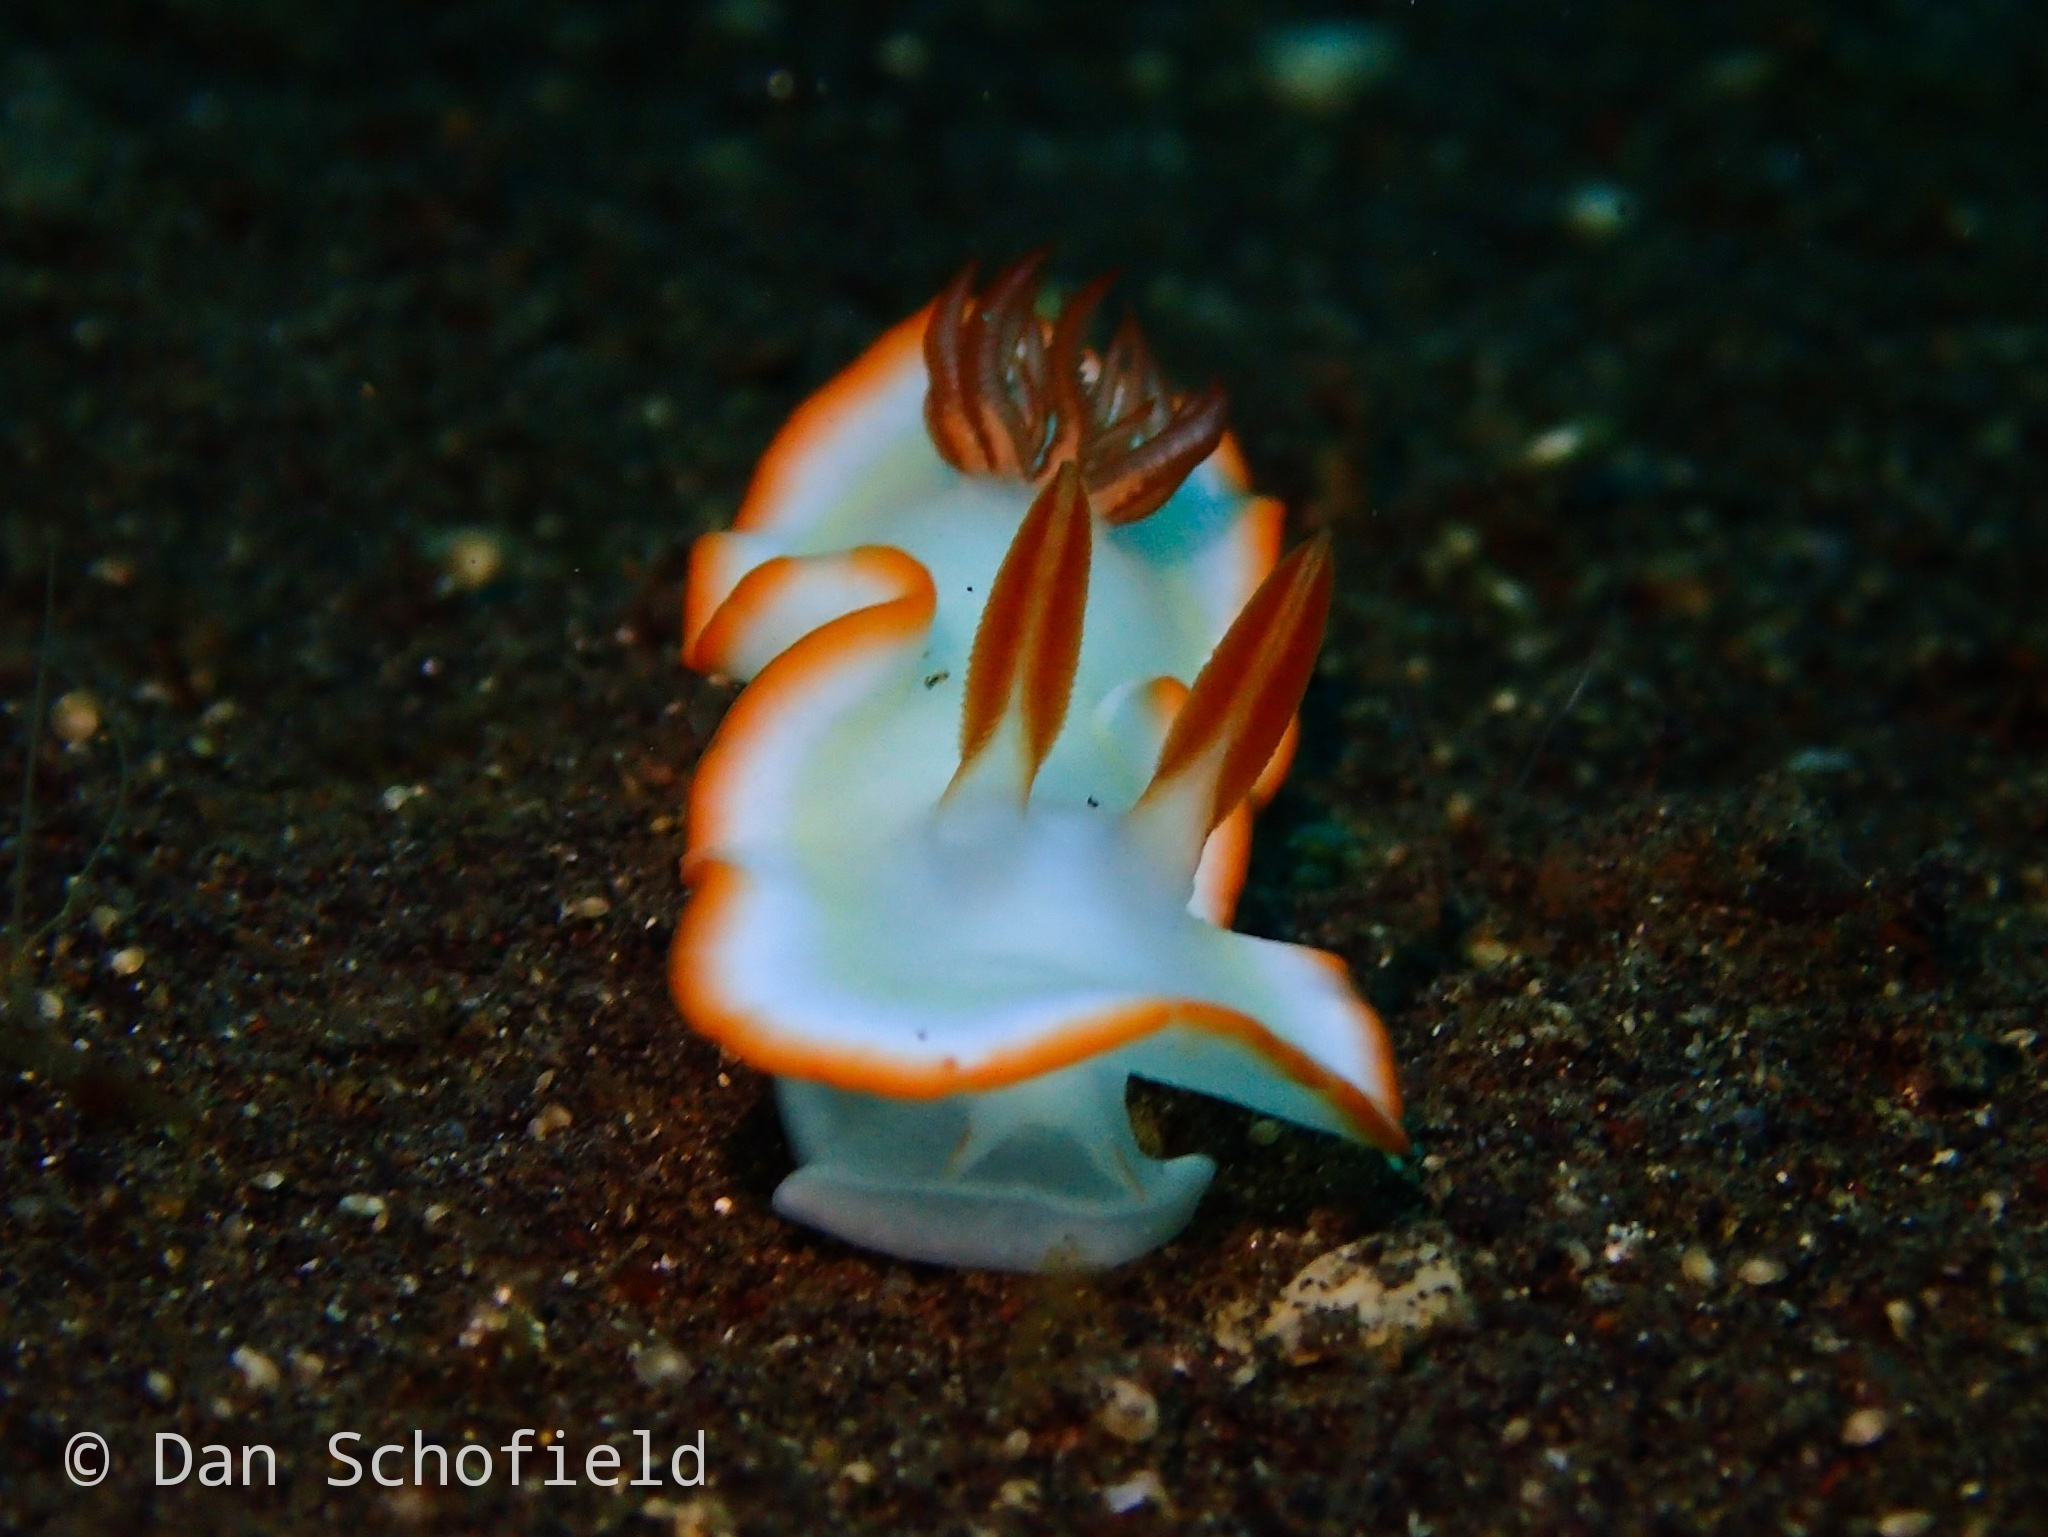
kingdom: Animalia
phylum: Mollusca
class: Gastropoda
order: Nudibranchia
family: Chromodorididae
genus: Ardeadoris
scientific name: Ardeadoris averni
